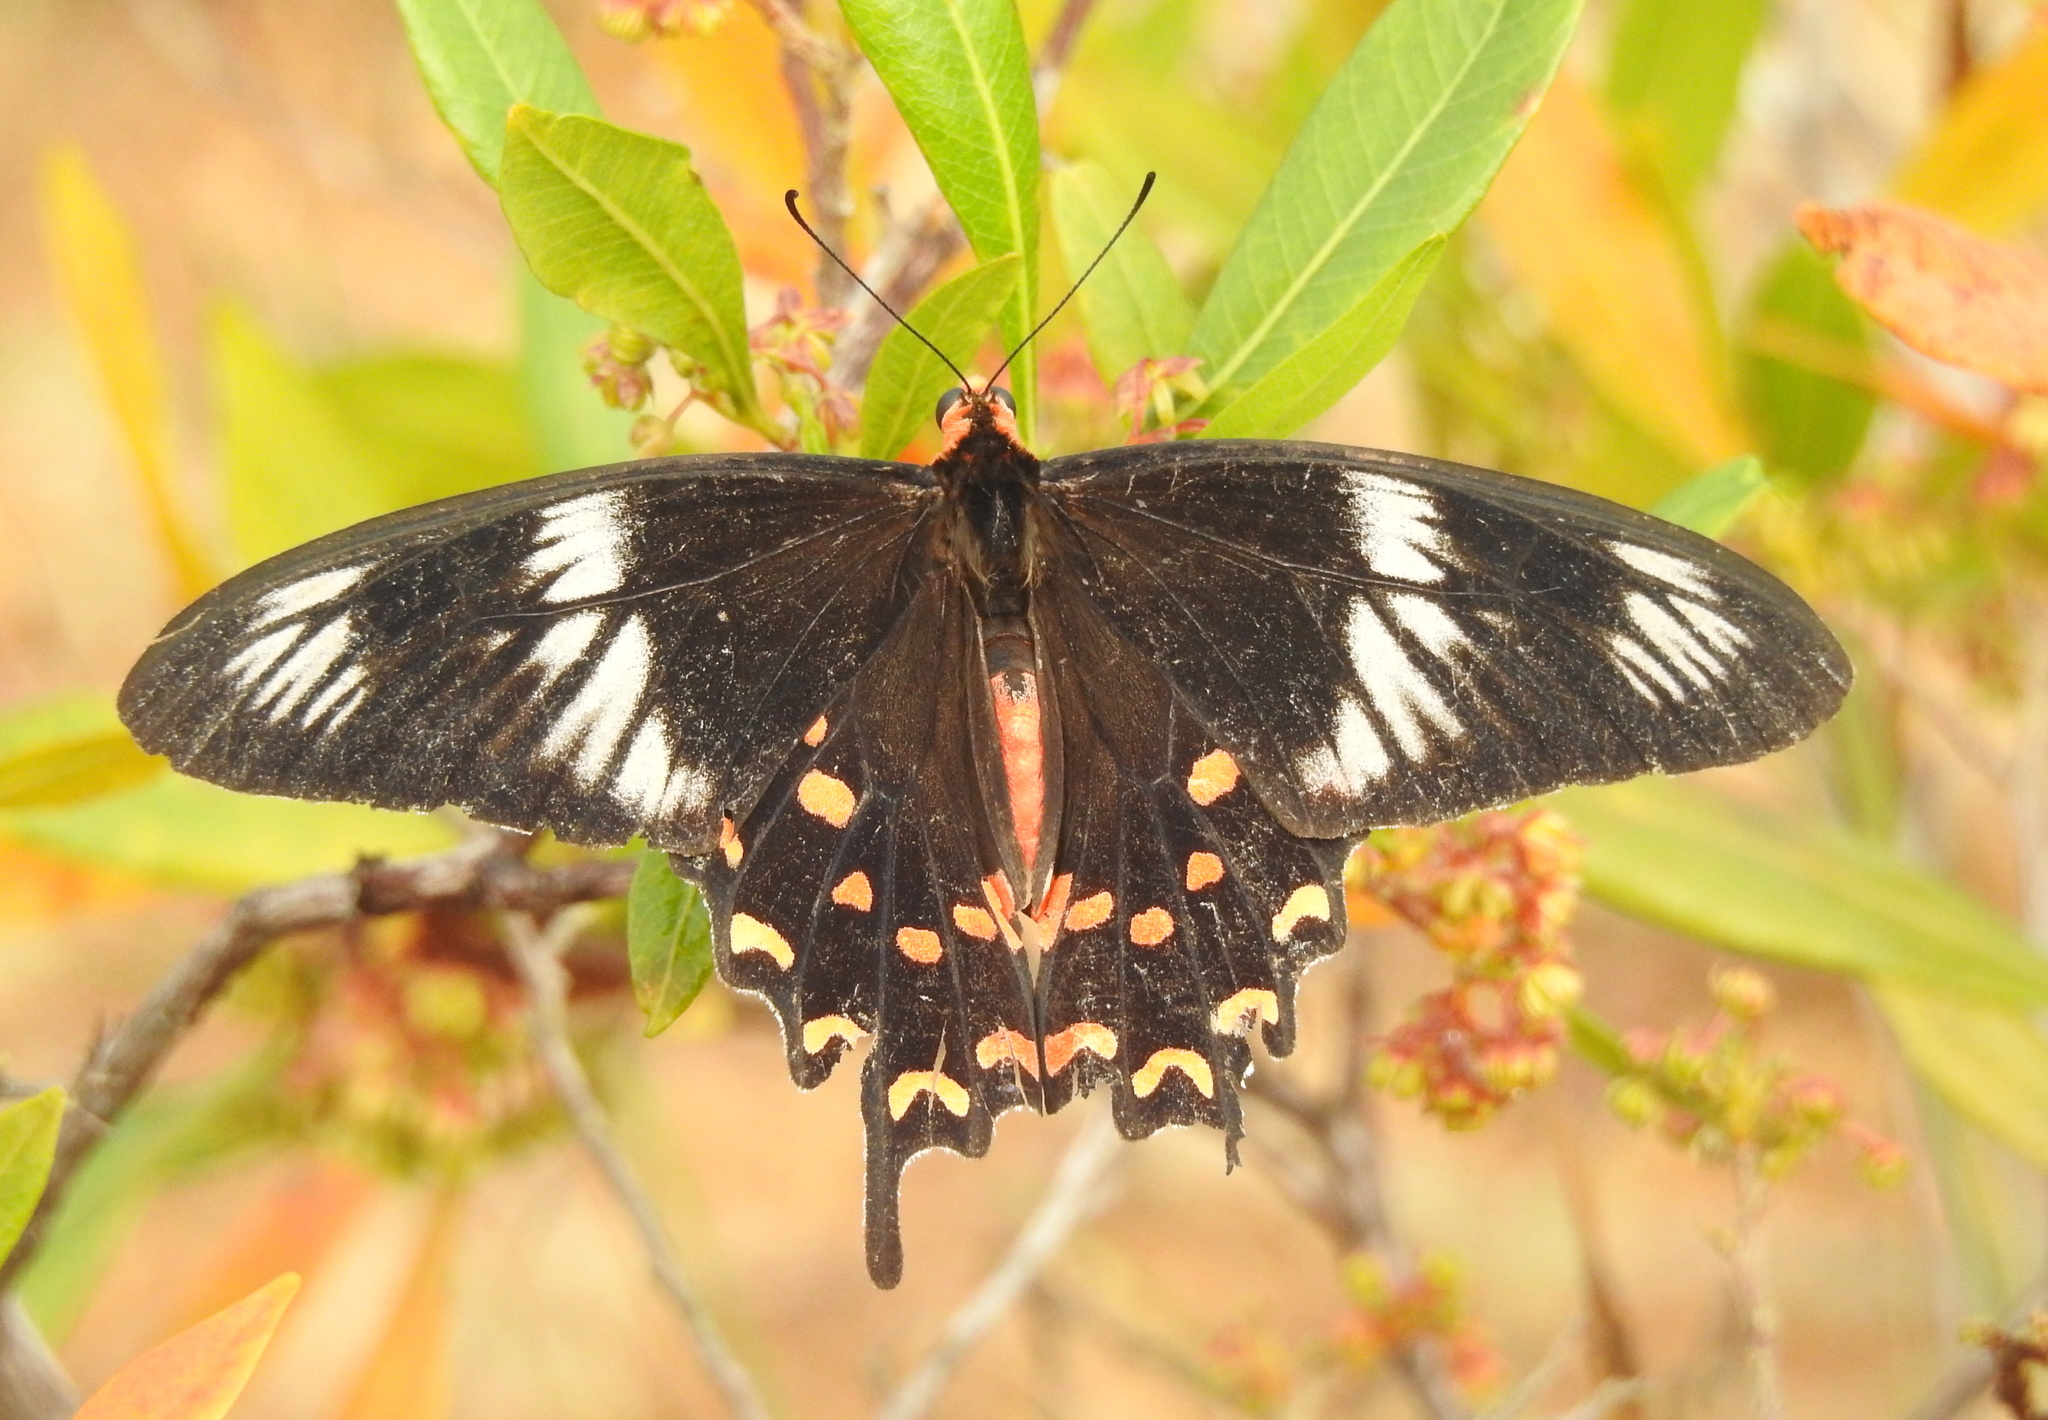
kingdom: Animalia
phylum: Arthropoda
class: Insecta
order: Lepidoptera
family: Papilionidae
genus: Pachliopta
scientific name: Pachliopta hector
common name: Crimson rose
